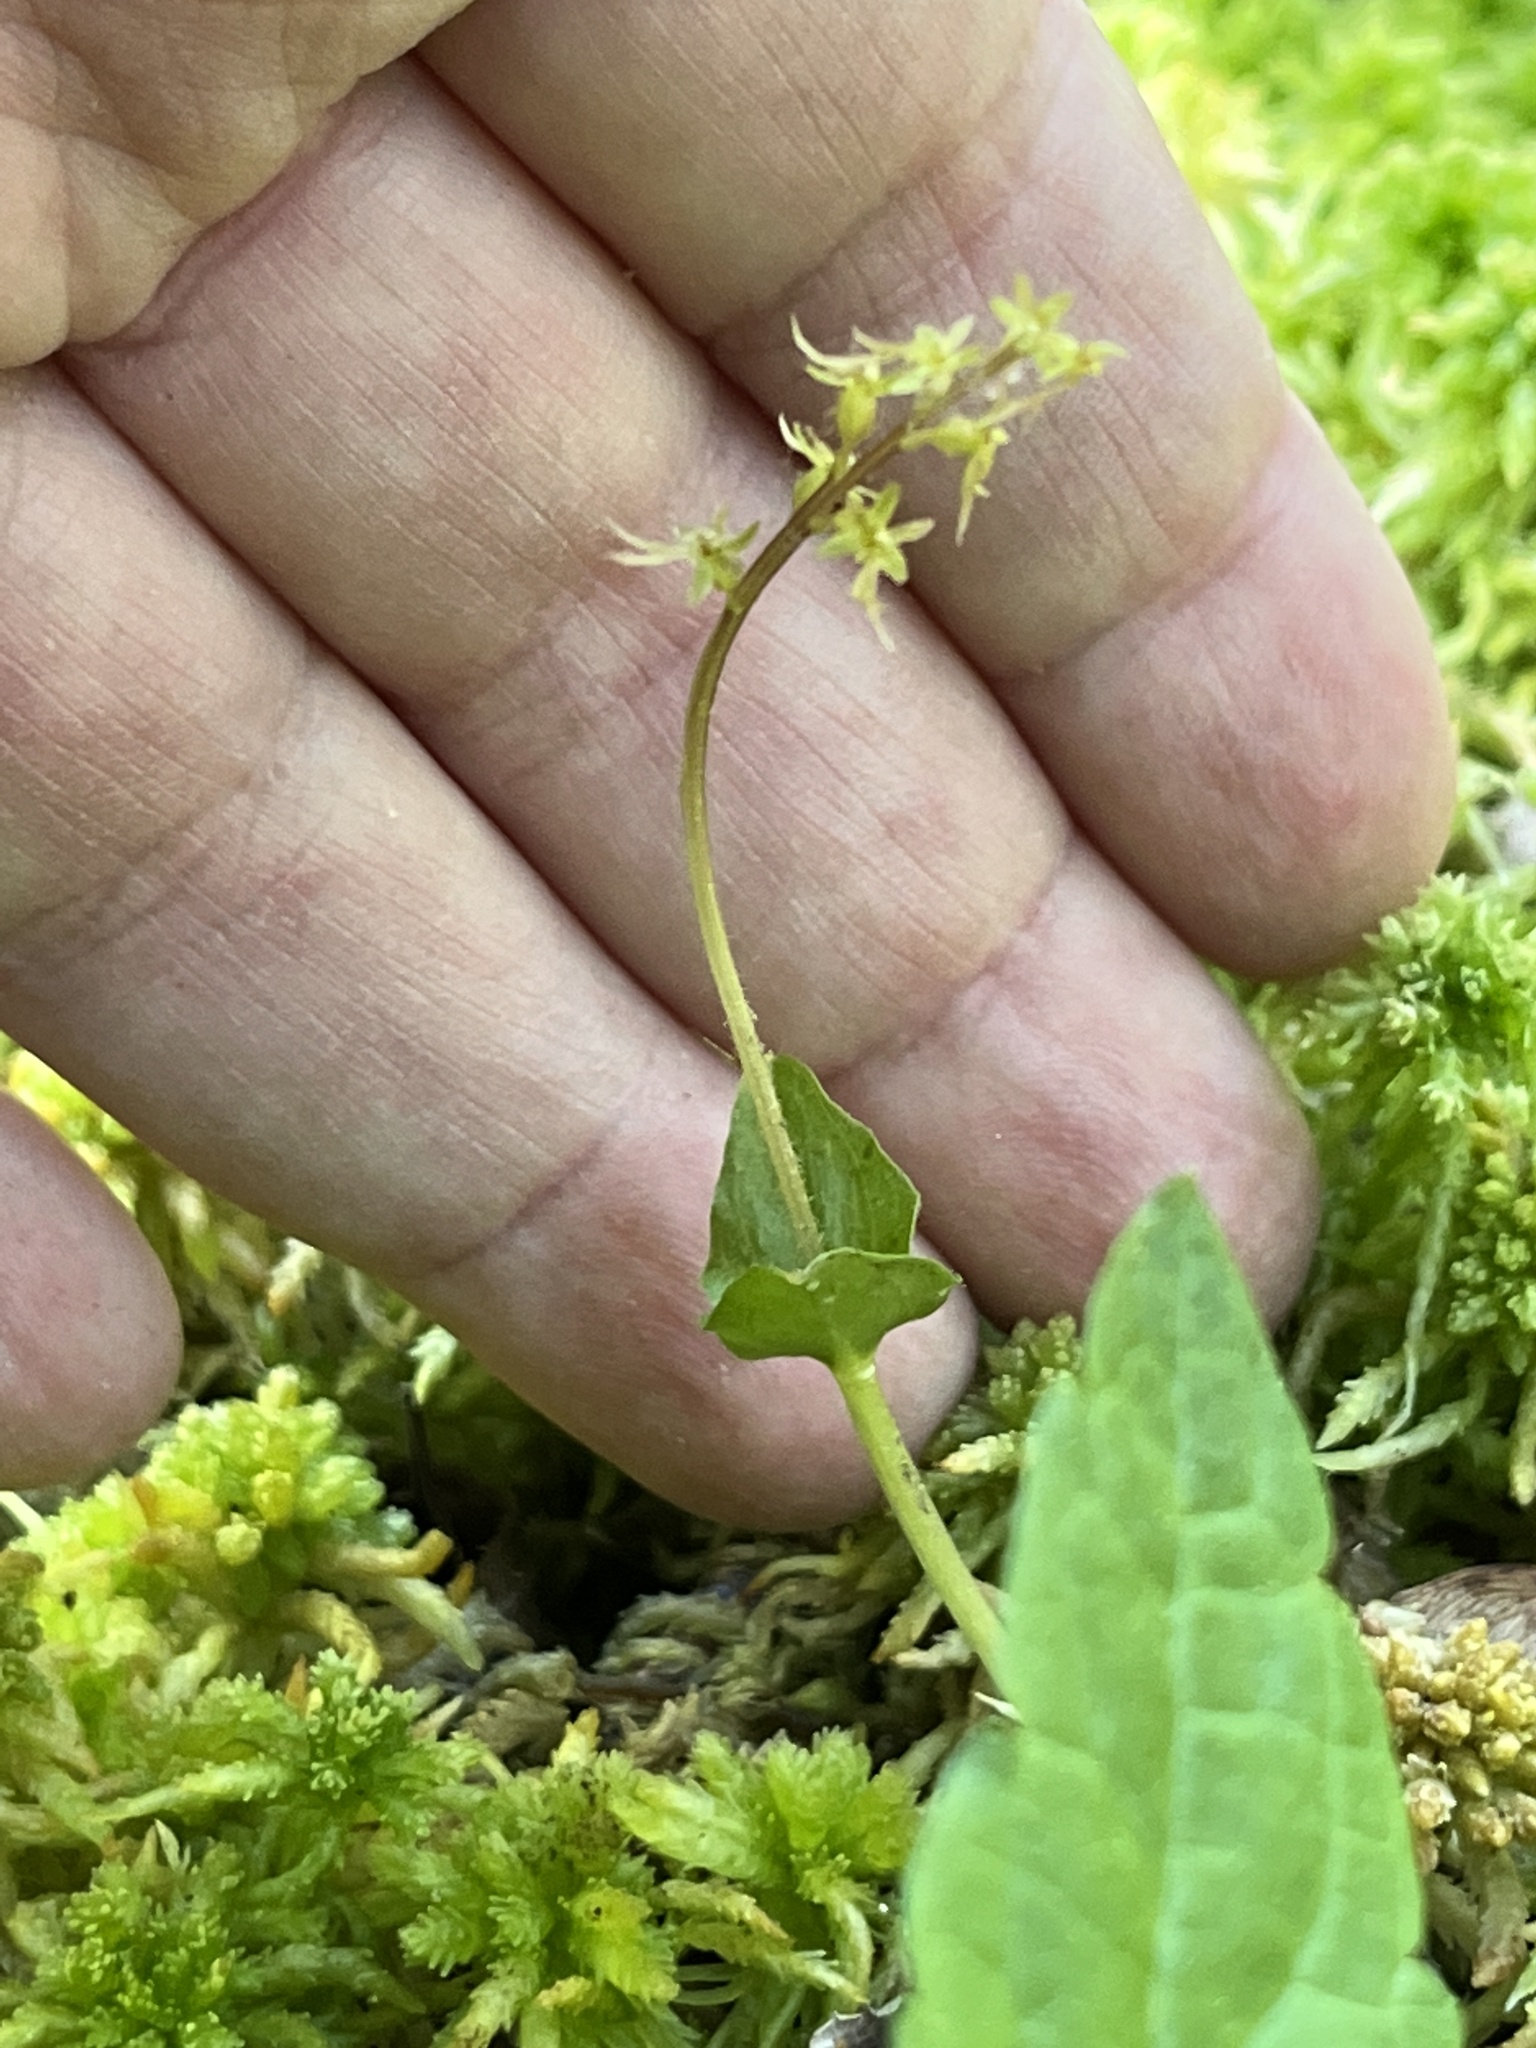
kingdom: Plantae
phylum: Tracheophyta
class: Liliopsida
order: Asparagales
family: Orchidaceae
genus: Neottia
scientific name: Neottia cordata
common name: Lesser twayblade
